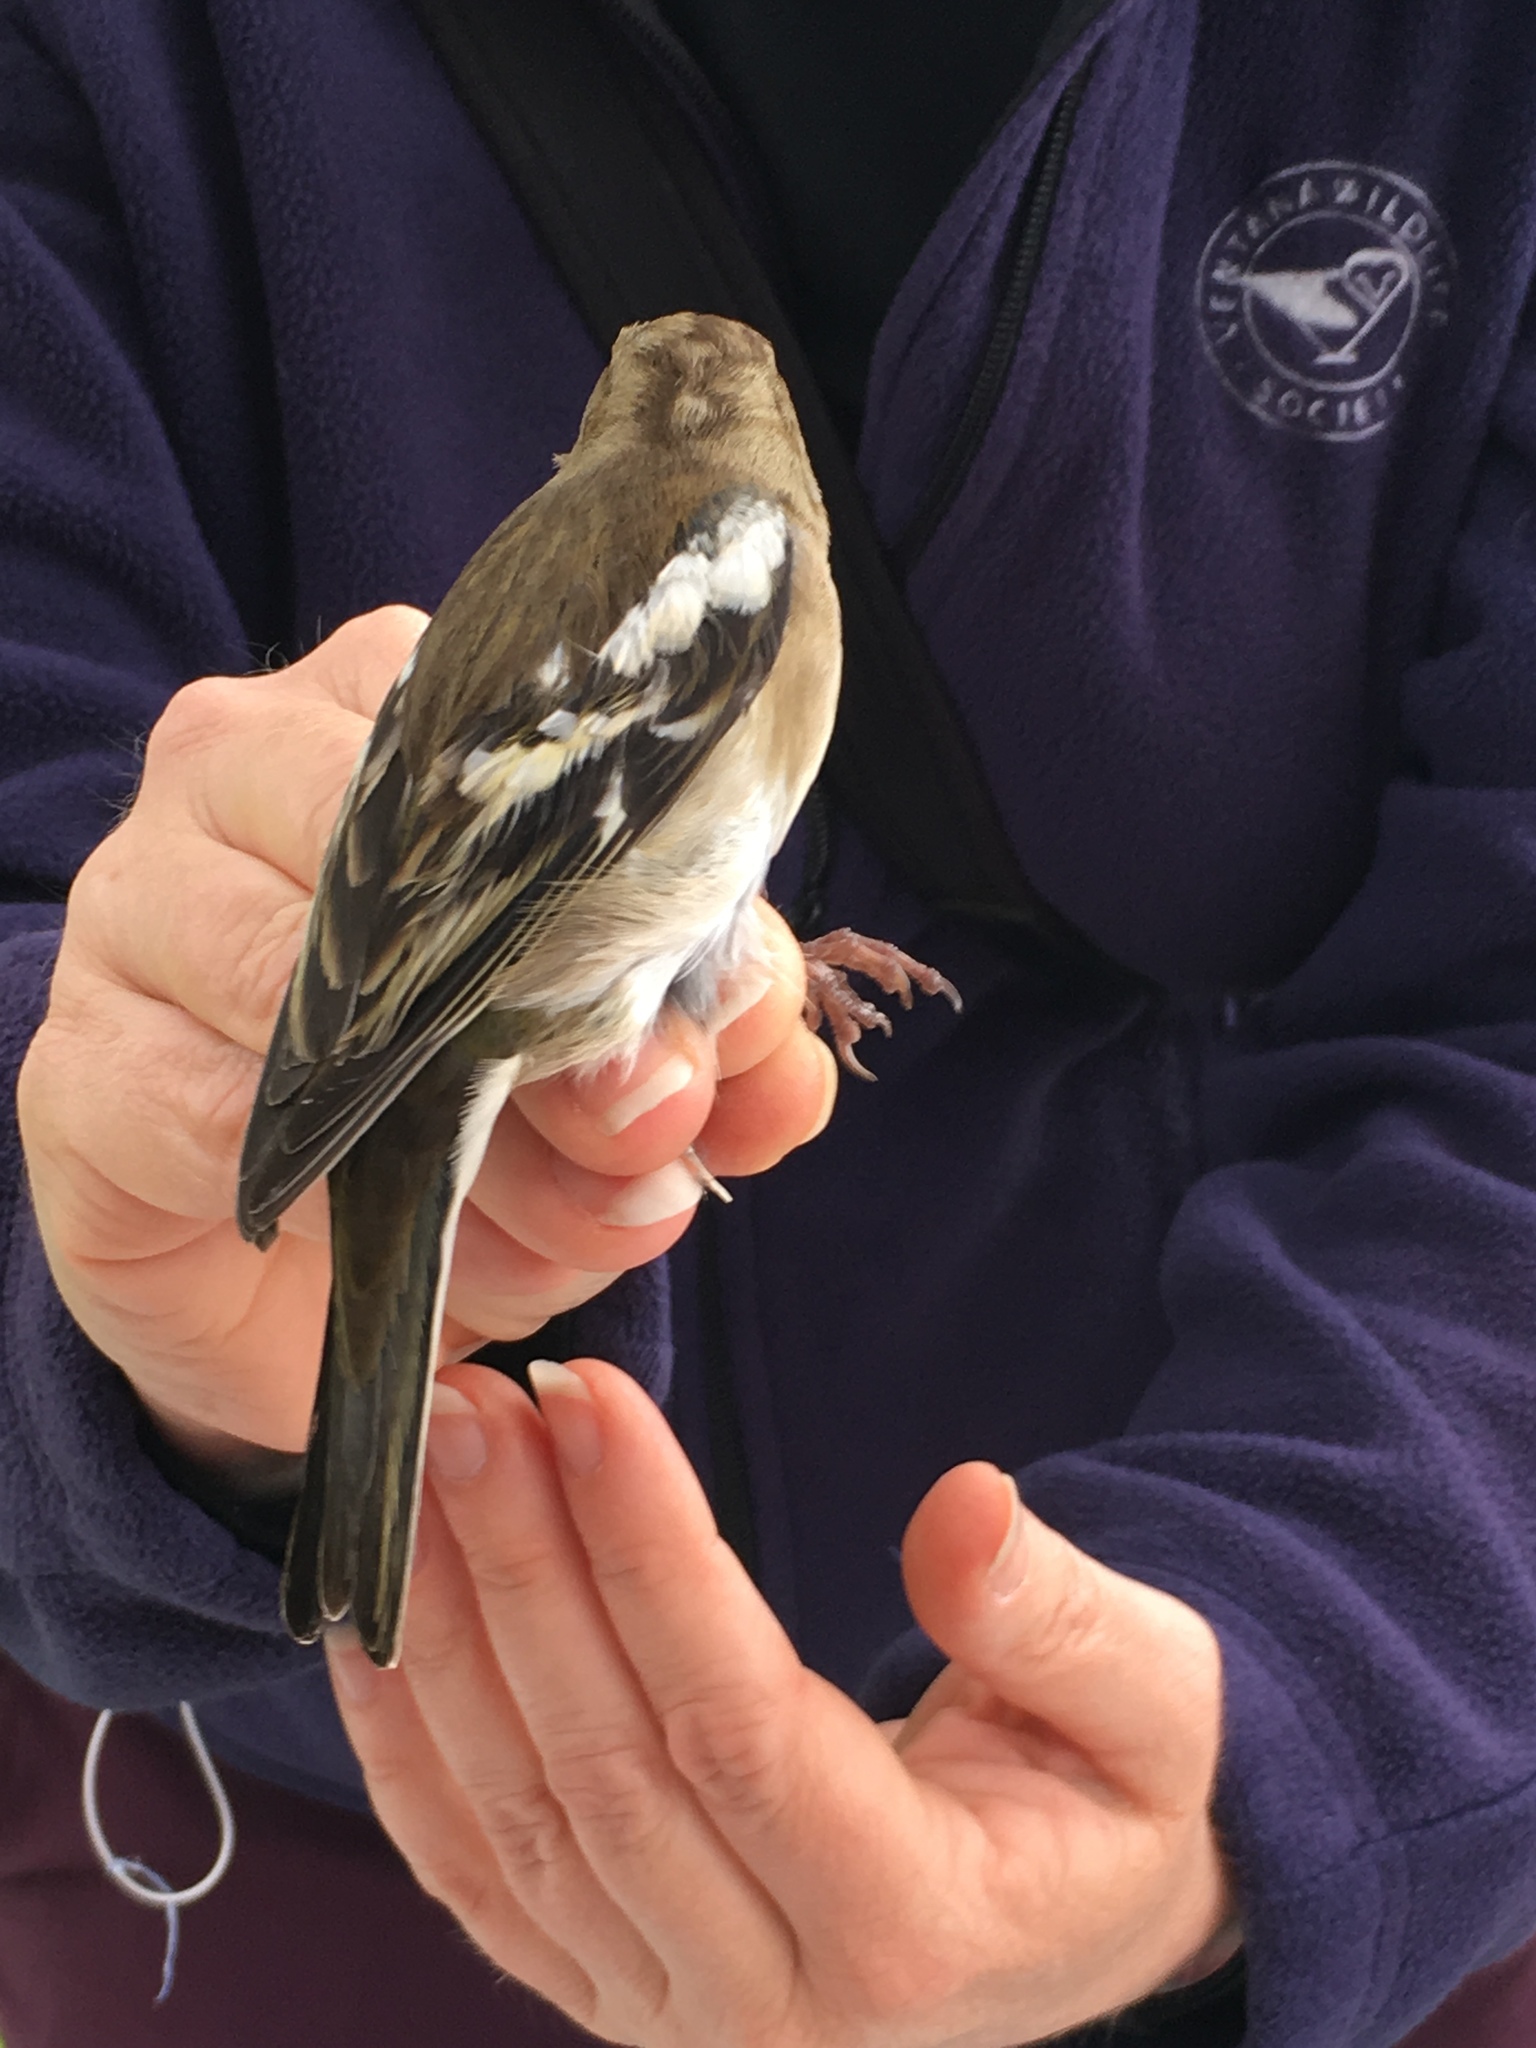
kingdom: Animalia
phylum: Chordata
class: Aves
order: Passeriformes
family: Fringillidae
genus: Fringilla
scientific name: Fringilla coelebs
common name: Common chaffinch
